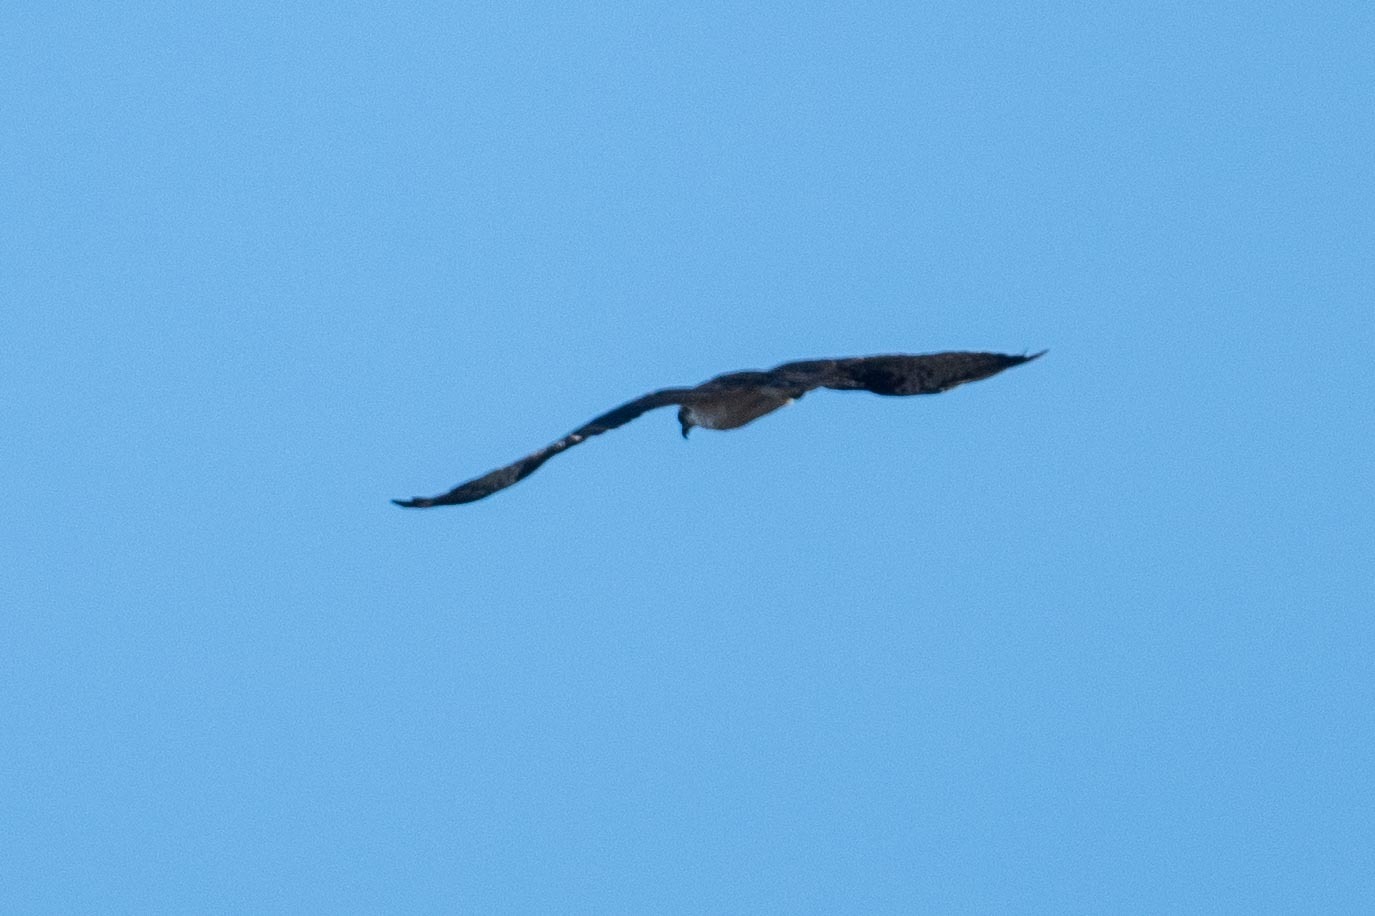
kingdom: Animalia
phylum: Chordata
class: Aves
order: Accipitriformes
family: Pandionidae
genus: Pandion
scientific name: Pandion haliaetus
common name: Osprey
